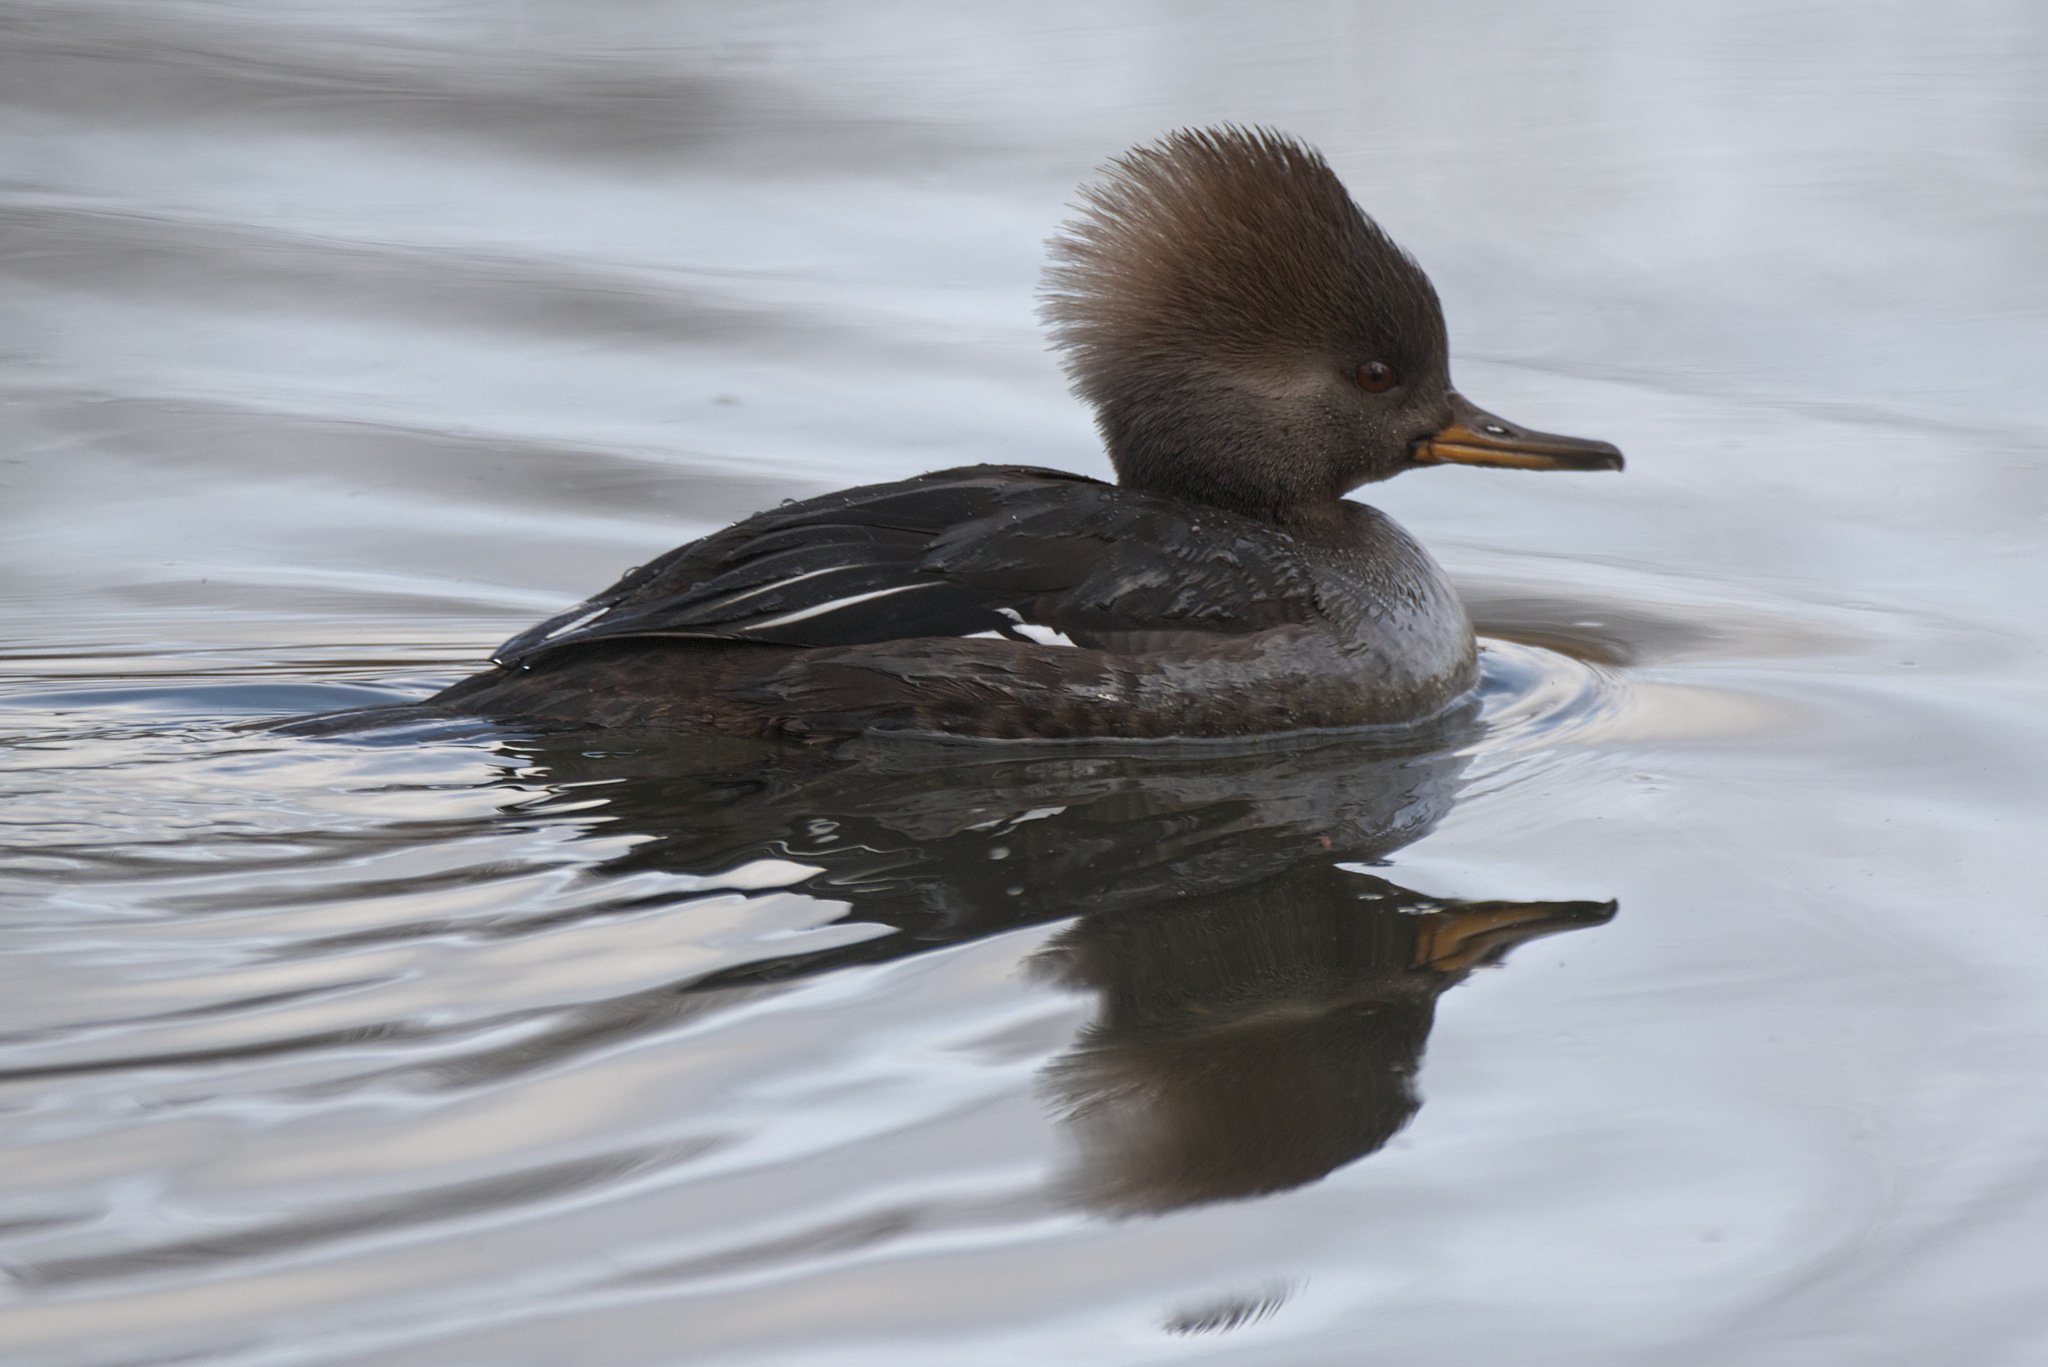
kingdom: Animalia
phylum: Chordata
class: Aves
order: Anseriformes
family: Anatidae
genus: Lophodytes
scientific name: Lophodytes cucullatus
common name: Hooded merganser
